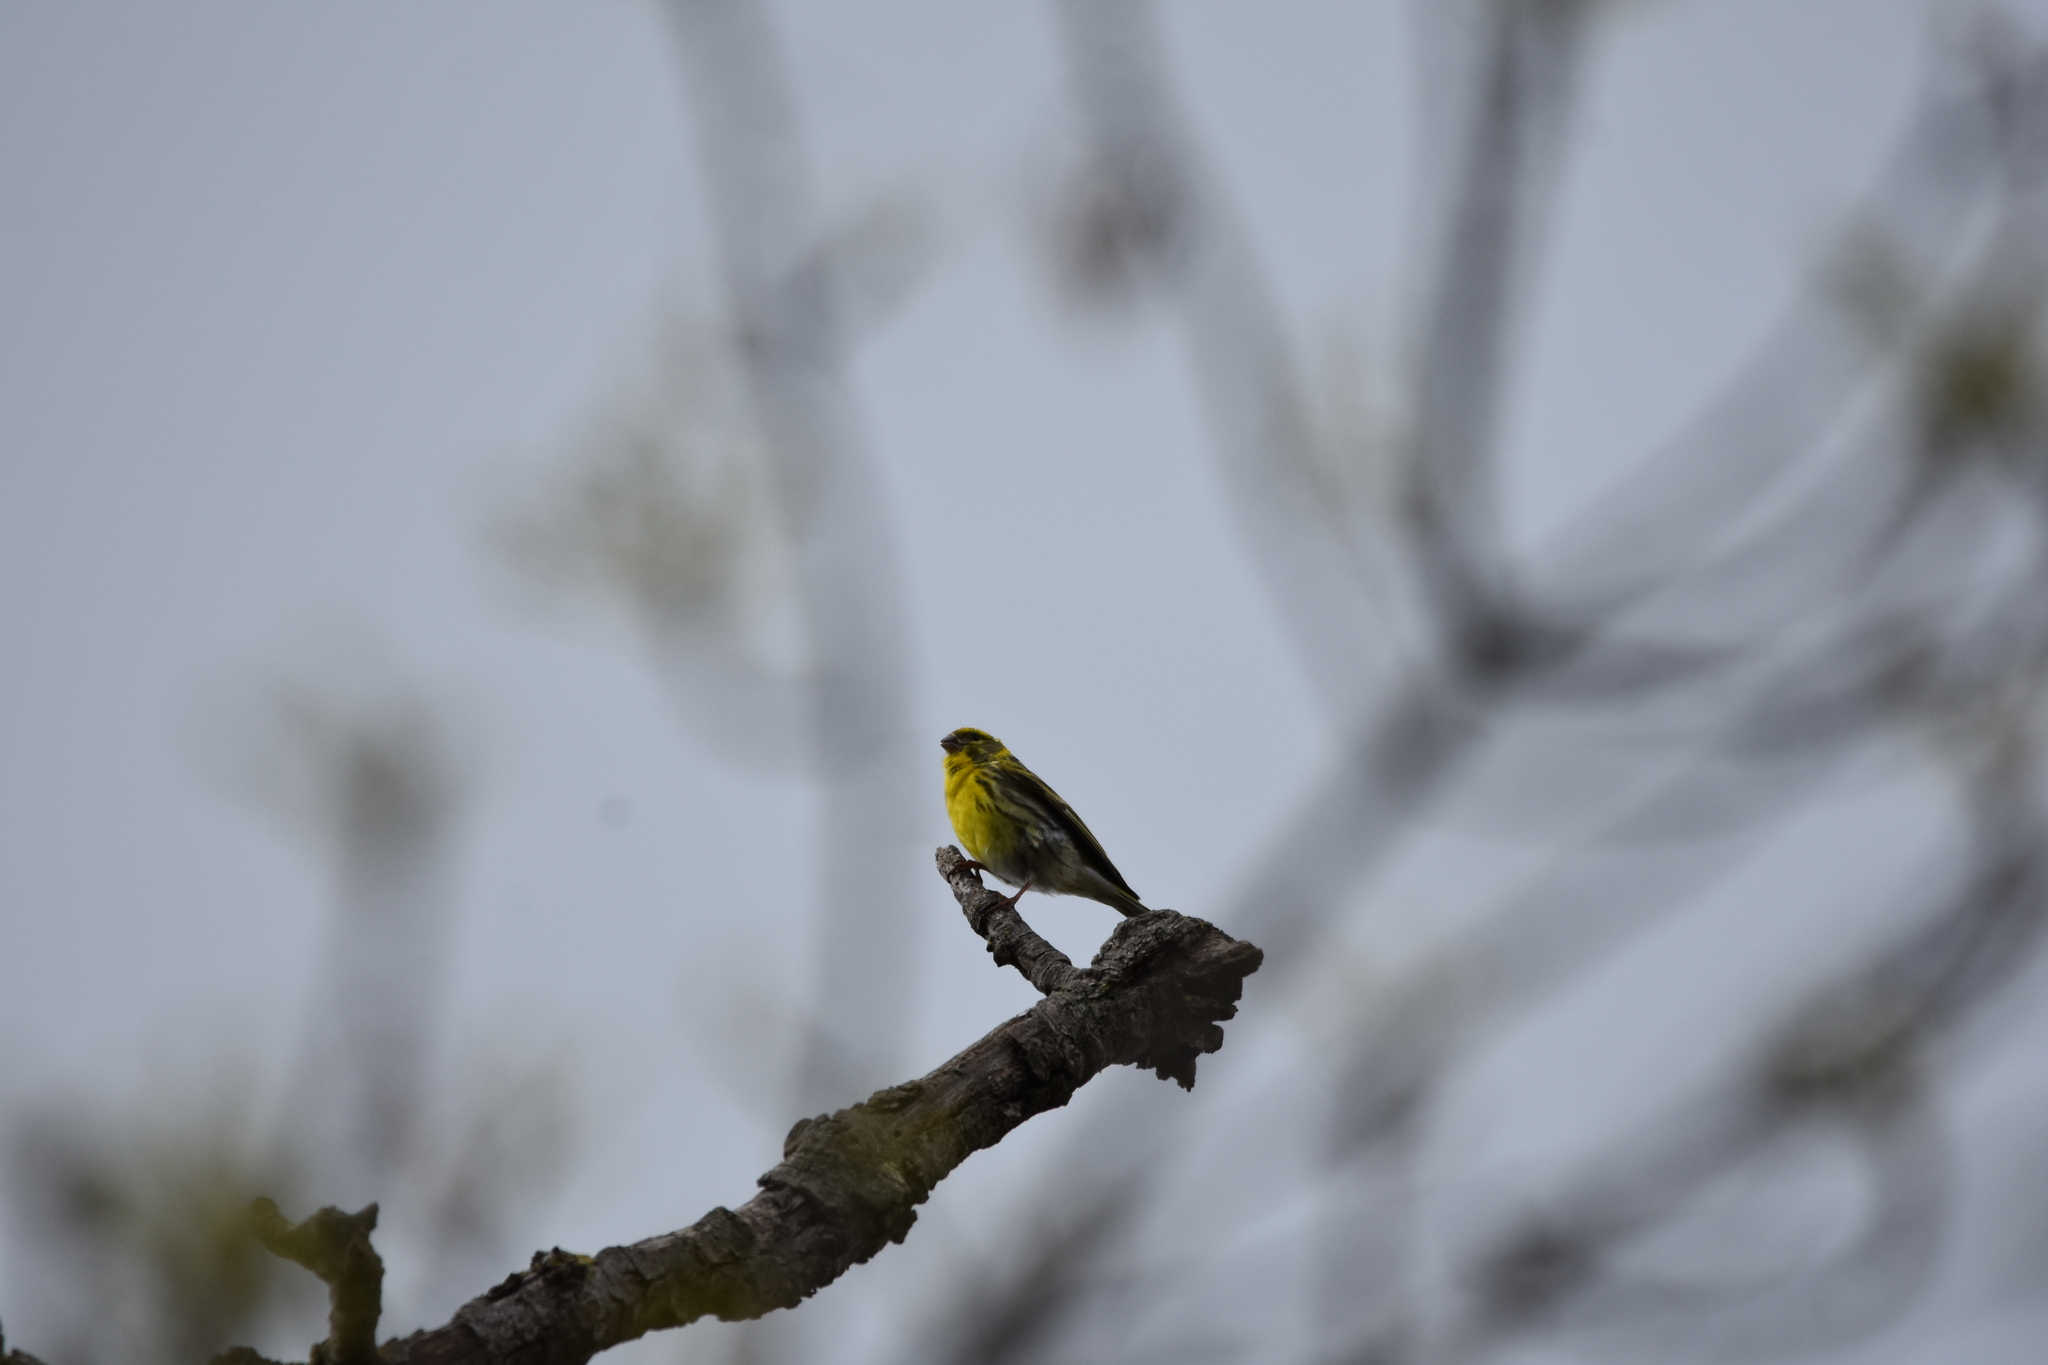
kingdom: Animalia
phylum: Chordata
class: Aves
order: Passeriformes
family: Fringillidae
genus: Serinus
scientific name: Serinus serinus
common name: European serin
